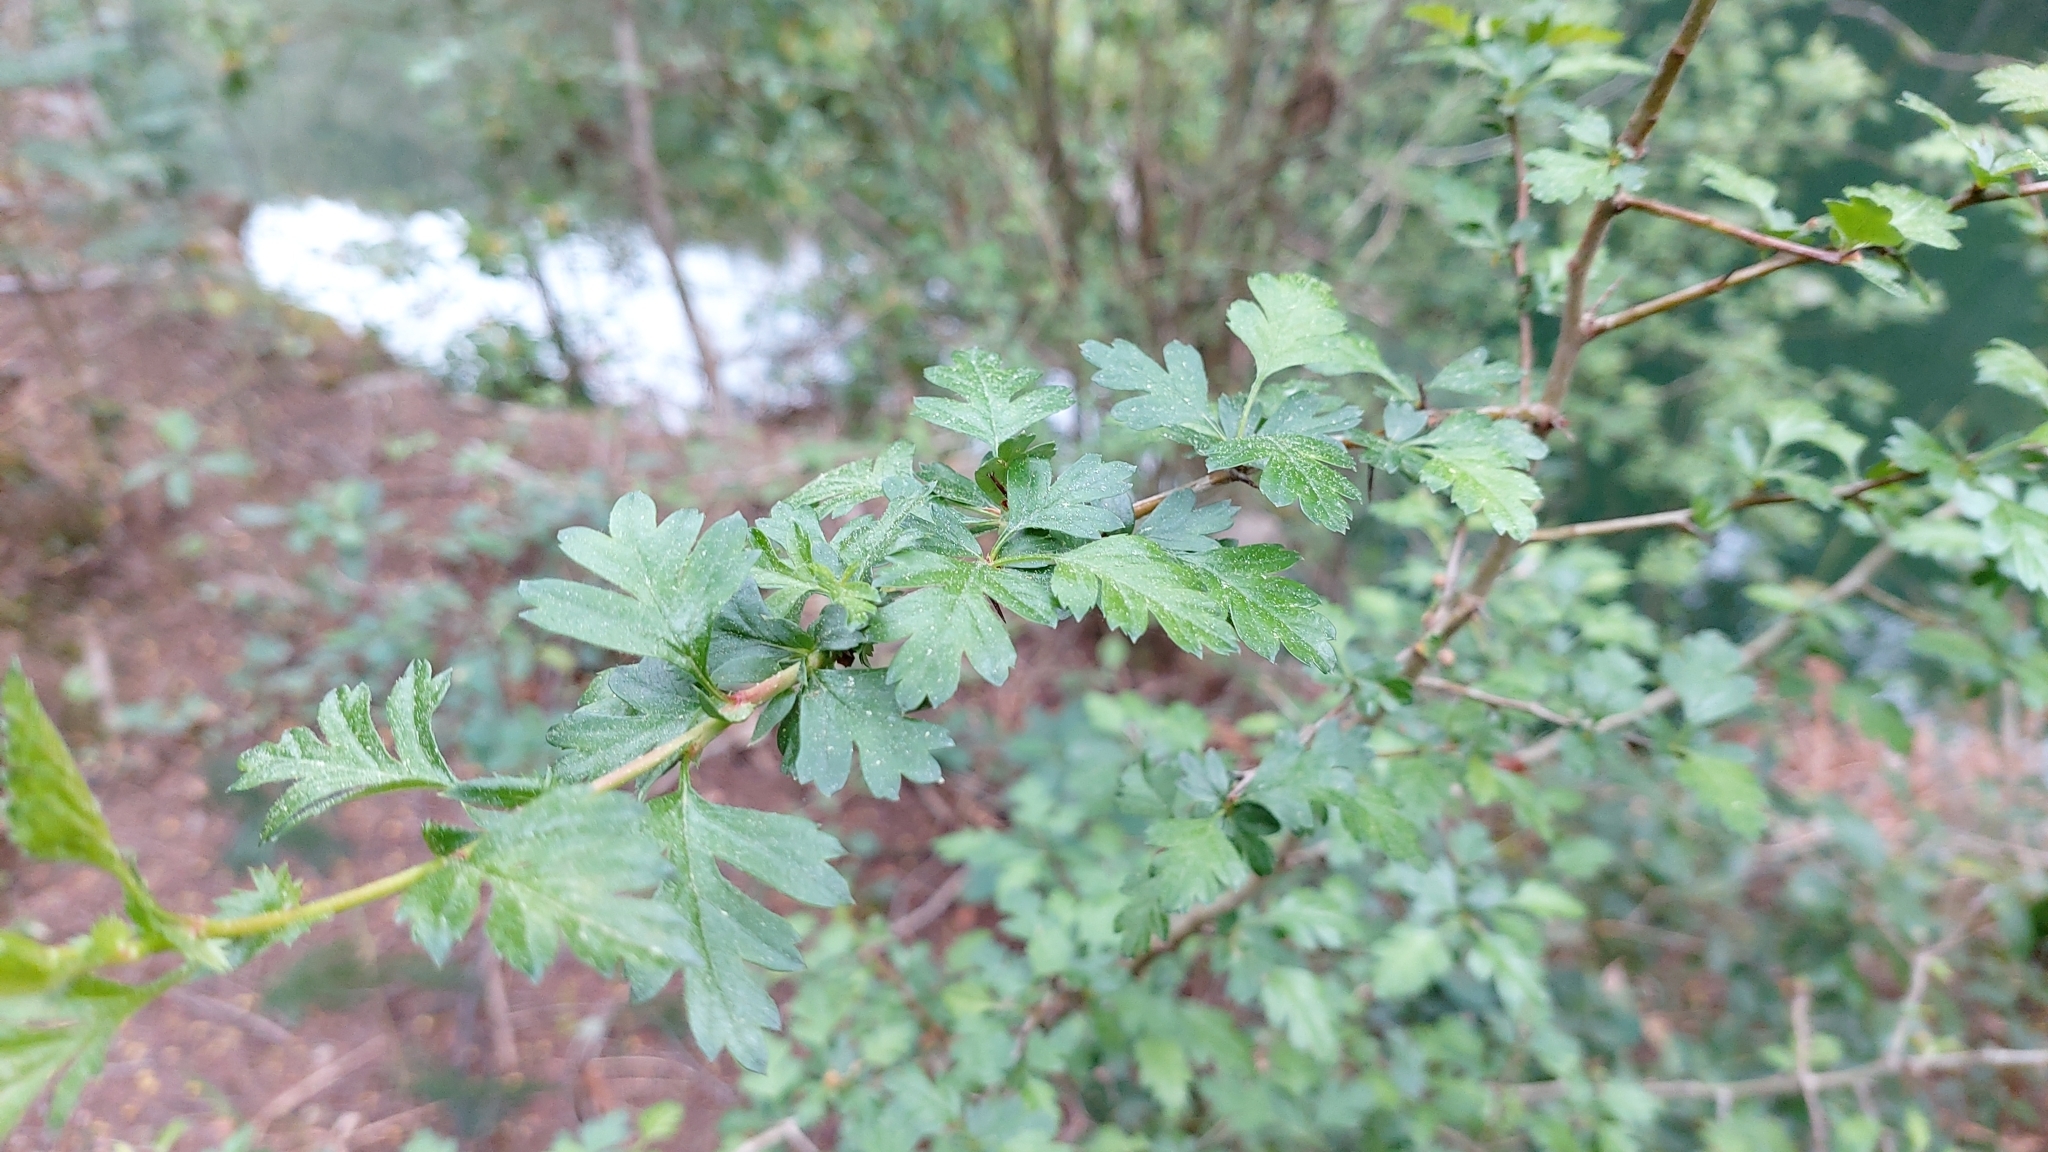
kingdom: Plantae
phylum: Tracheophyta
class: Magnoliopsida
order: Rosales
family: Rosaceae
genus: Crataegus
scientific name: Crataegus monogyna
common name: Hawthorn
